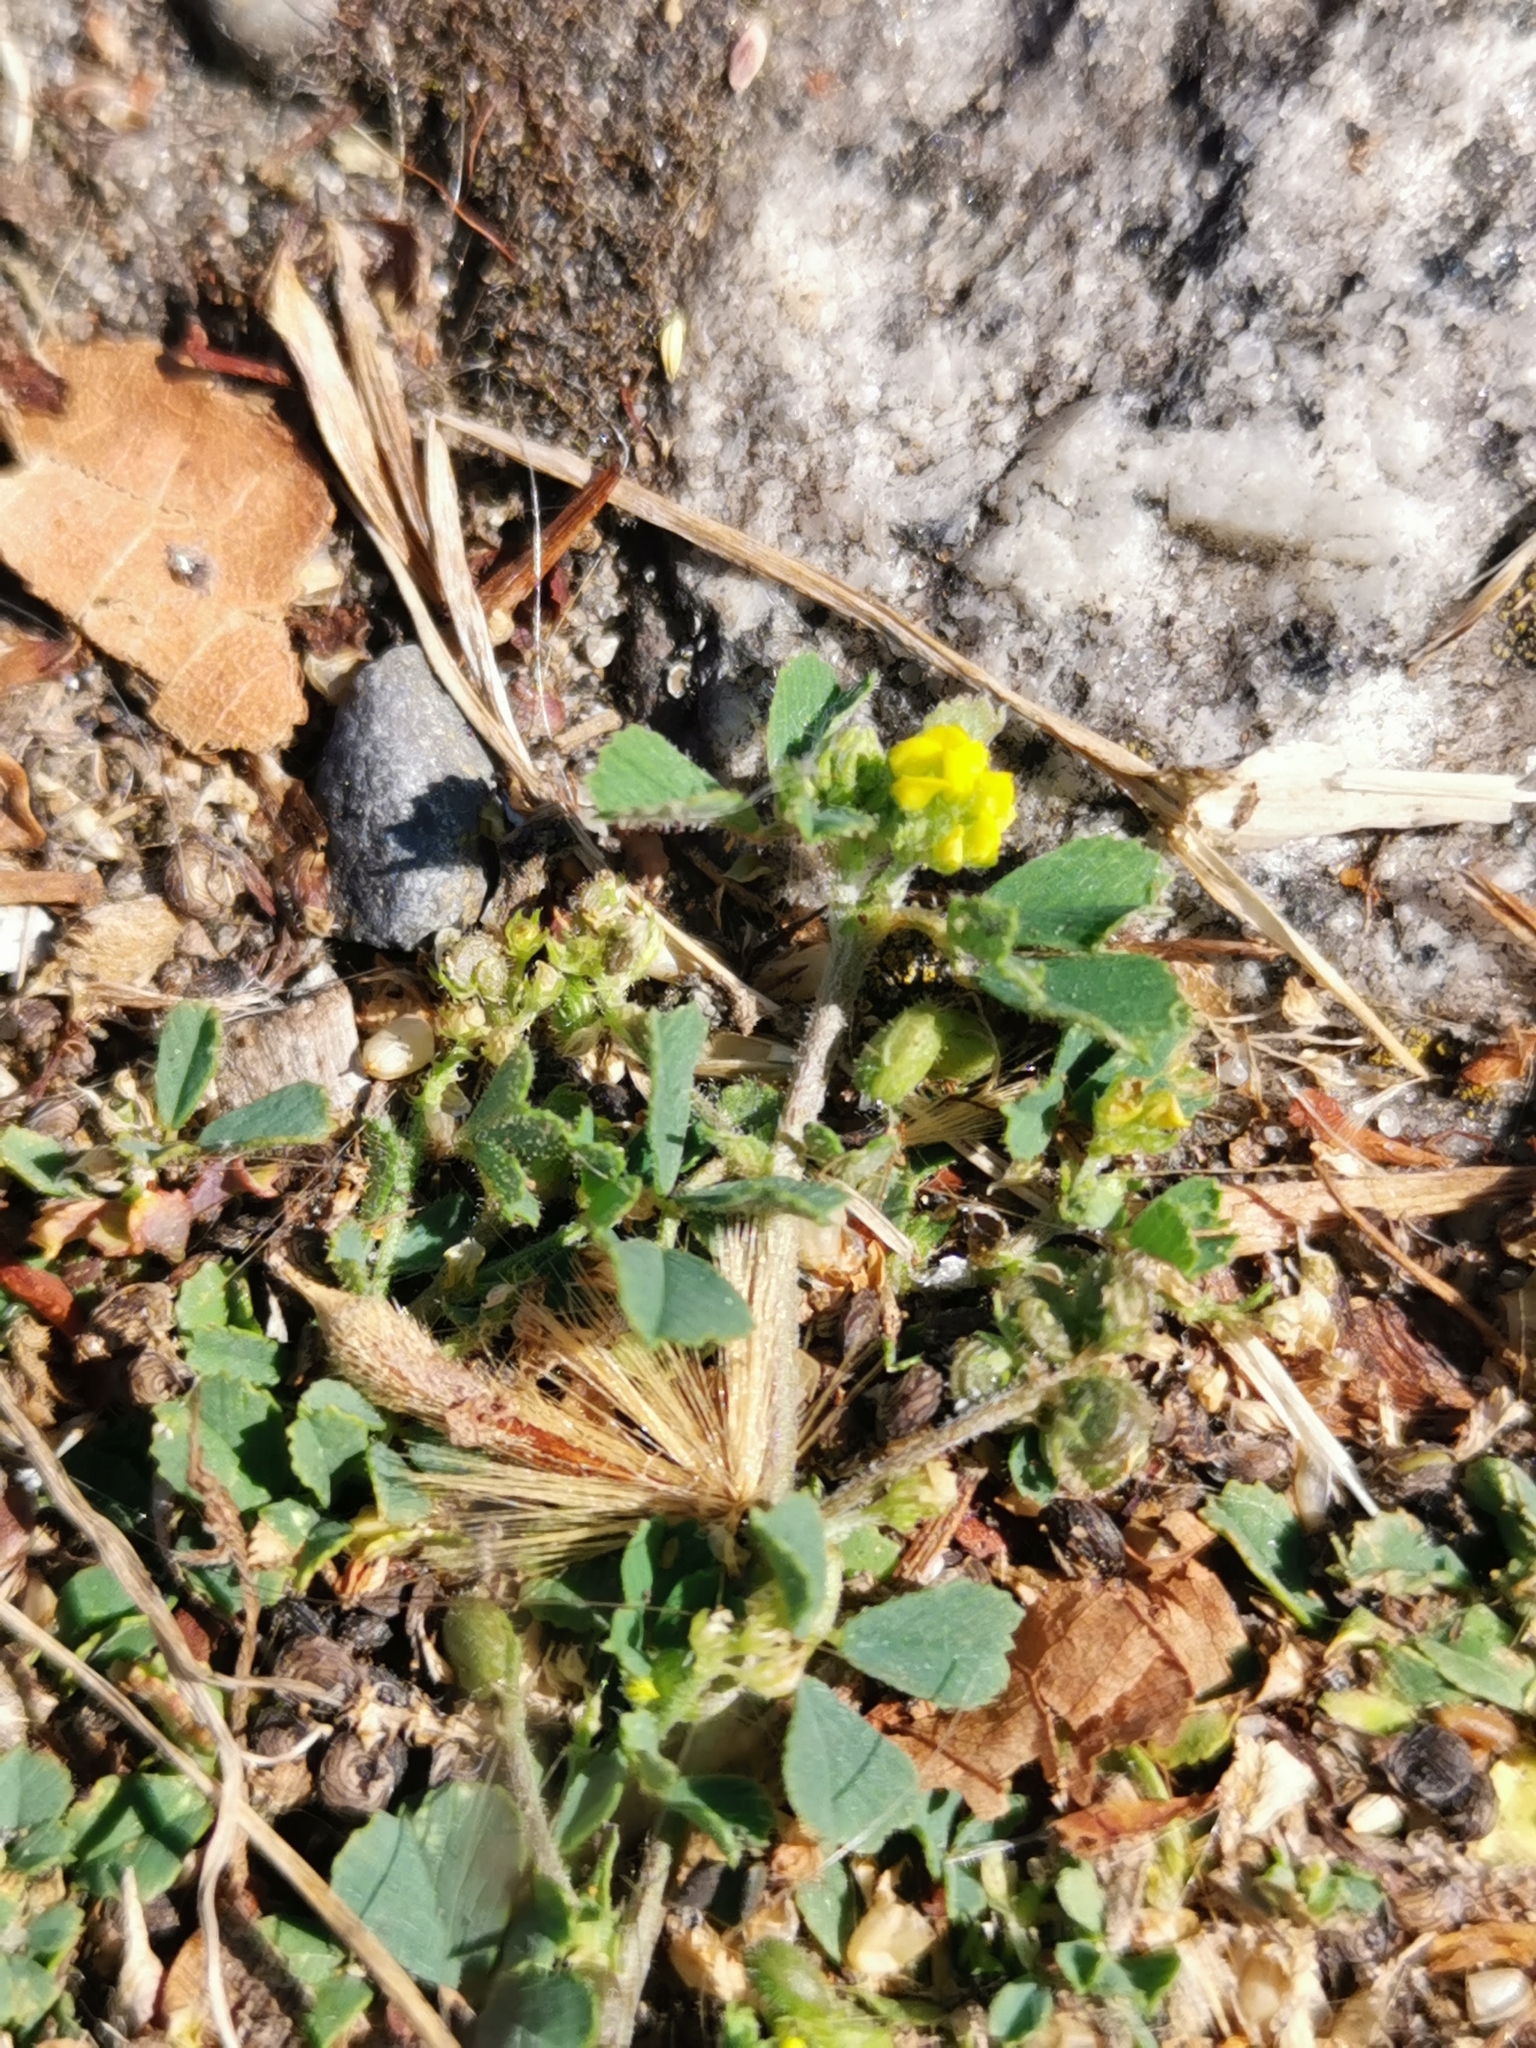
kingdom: Plantae
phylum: Tracheophyta
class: Magnoliopsida
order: Fabales
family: Fabaceae
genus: Medicago
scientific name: Medicago lupulina
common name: Black medick
